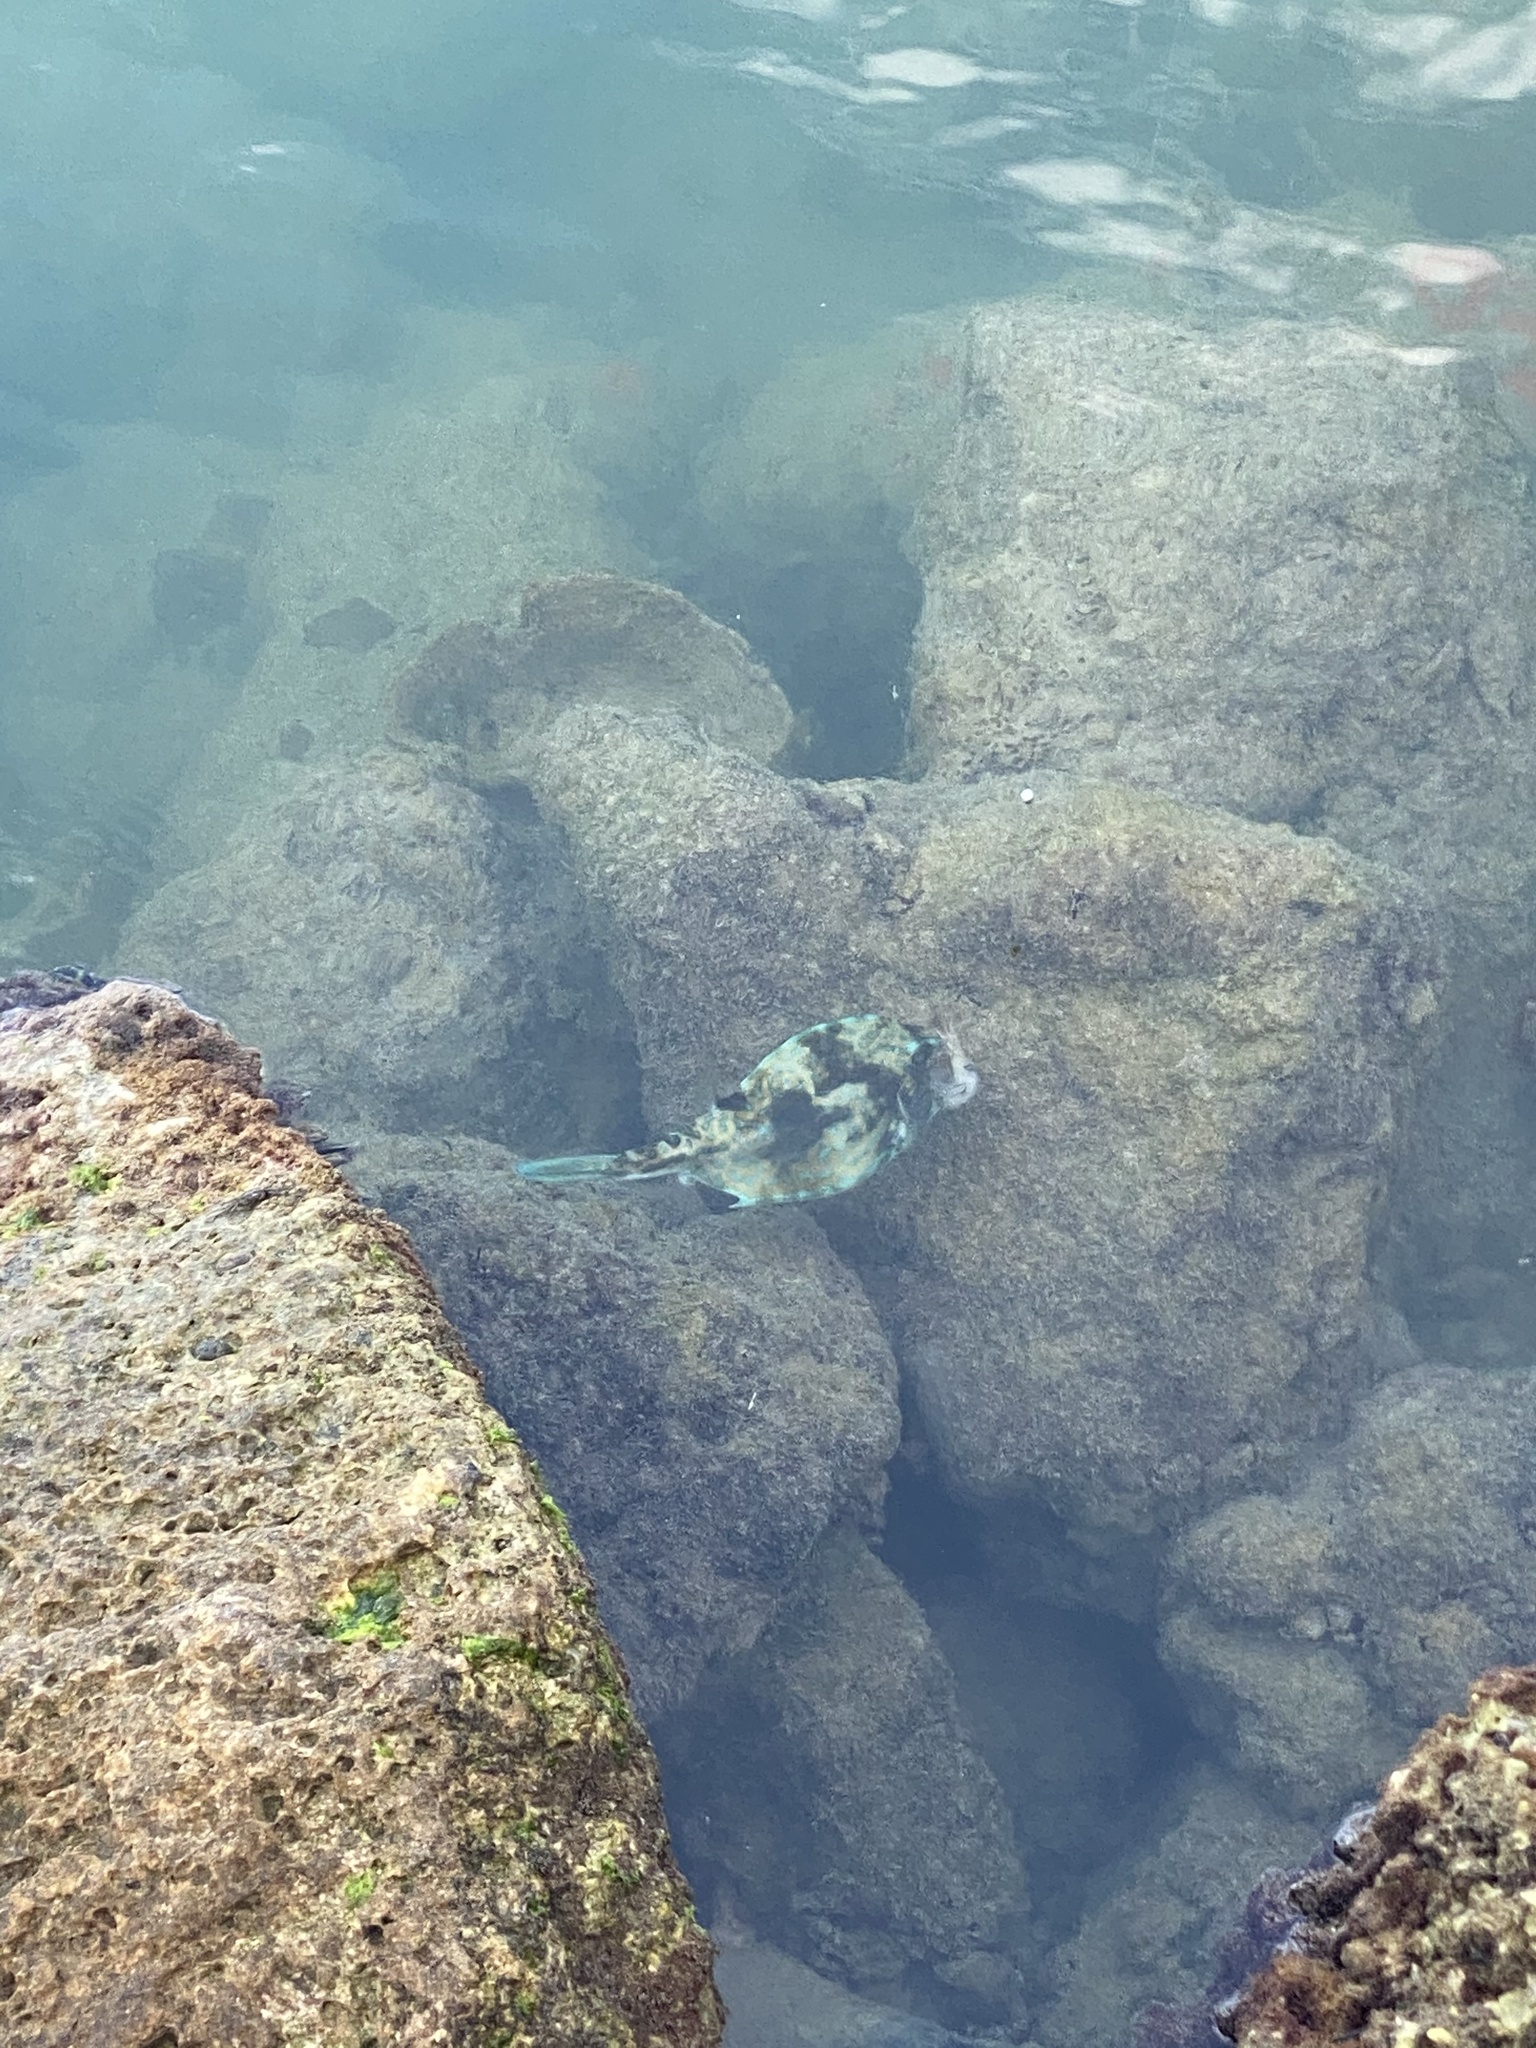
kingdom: Animalia
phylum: Chordata
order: Tetraodontiformes
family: Ostraciidae
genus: Acanthostracion
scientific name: Acanthostracion quadricornis
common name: Scrawled cowfish
